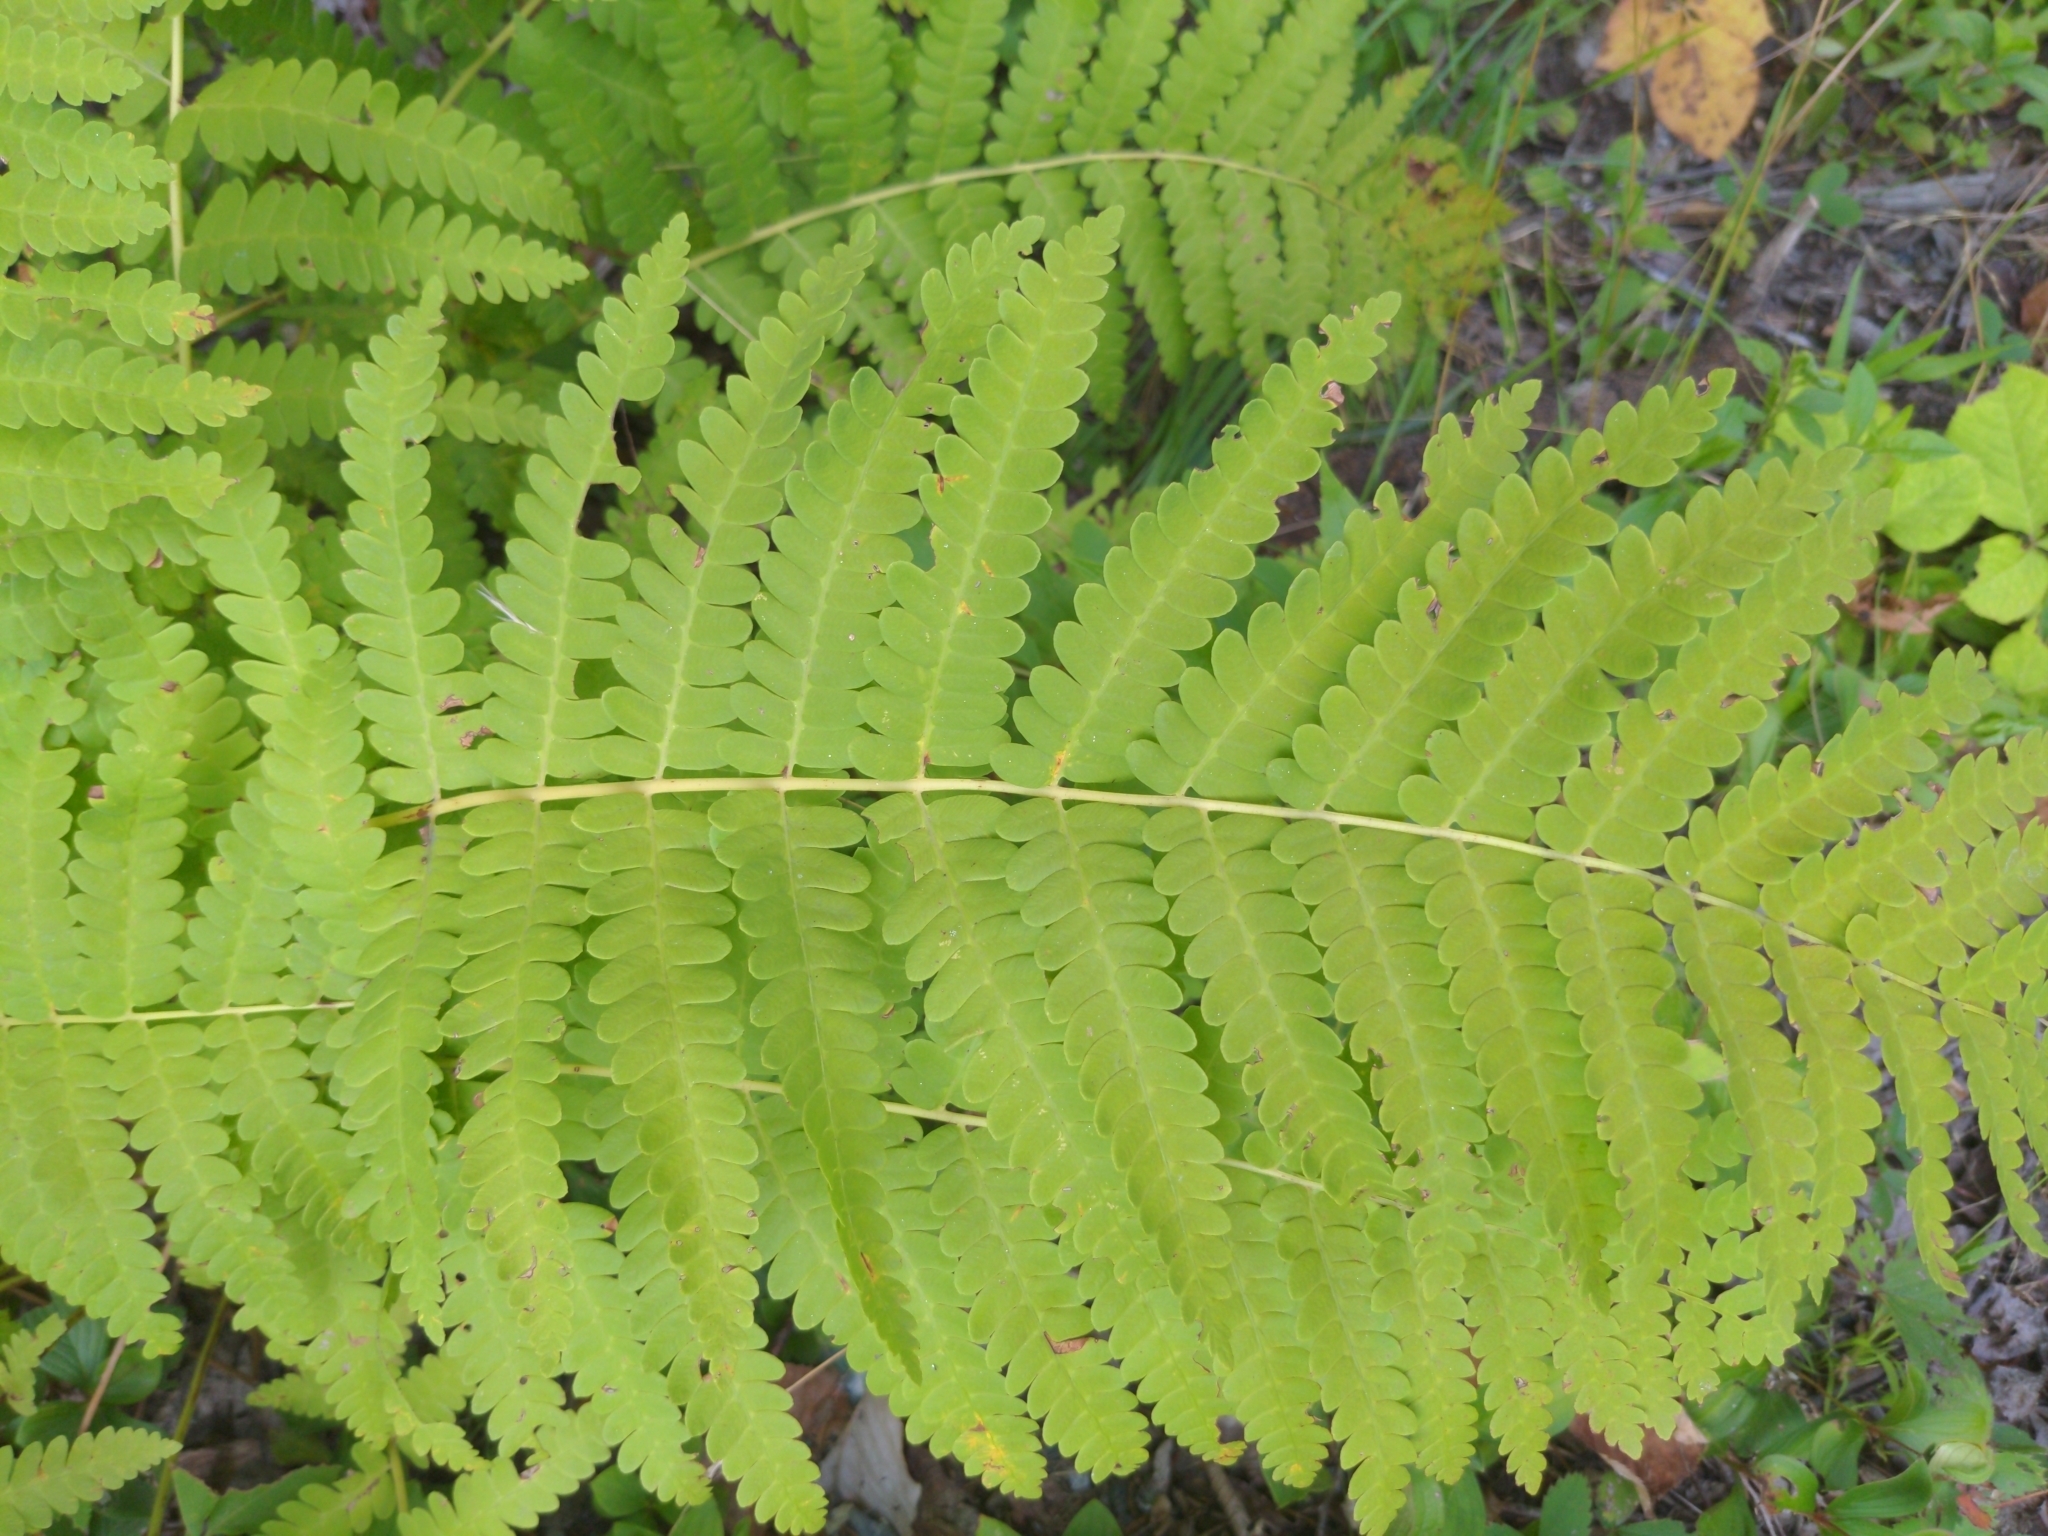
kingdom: Plantae
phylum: Tracheophyta
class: Polypodiopsida
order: Osmundales
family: Osmundaceae
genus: Claytosmunda
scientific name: Claytosmunda claytoniana
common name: Clayton's fern
